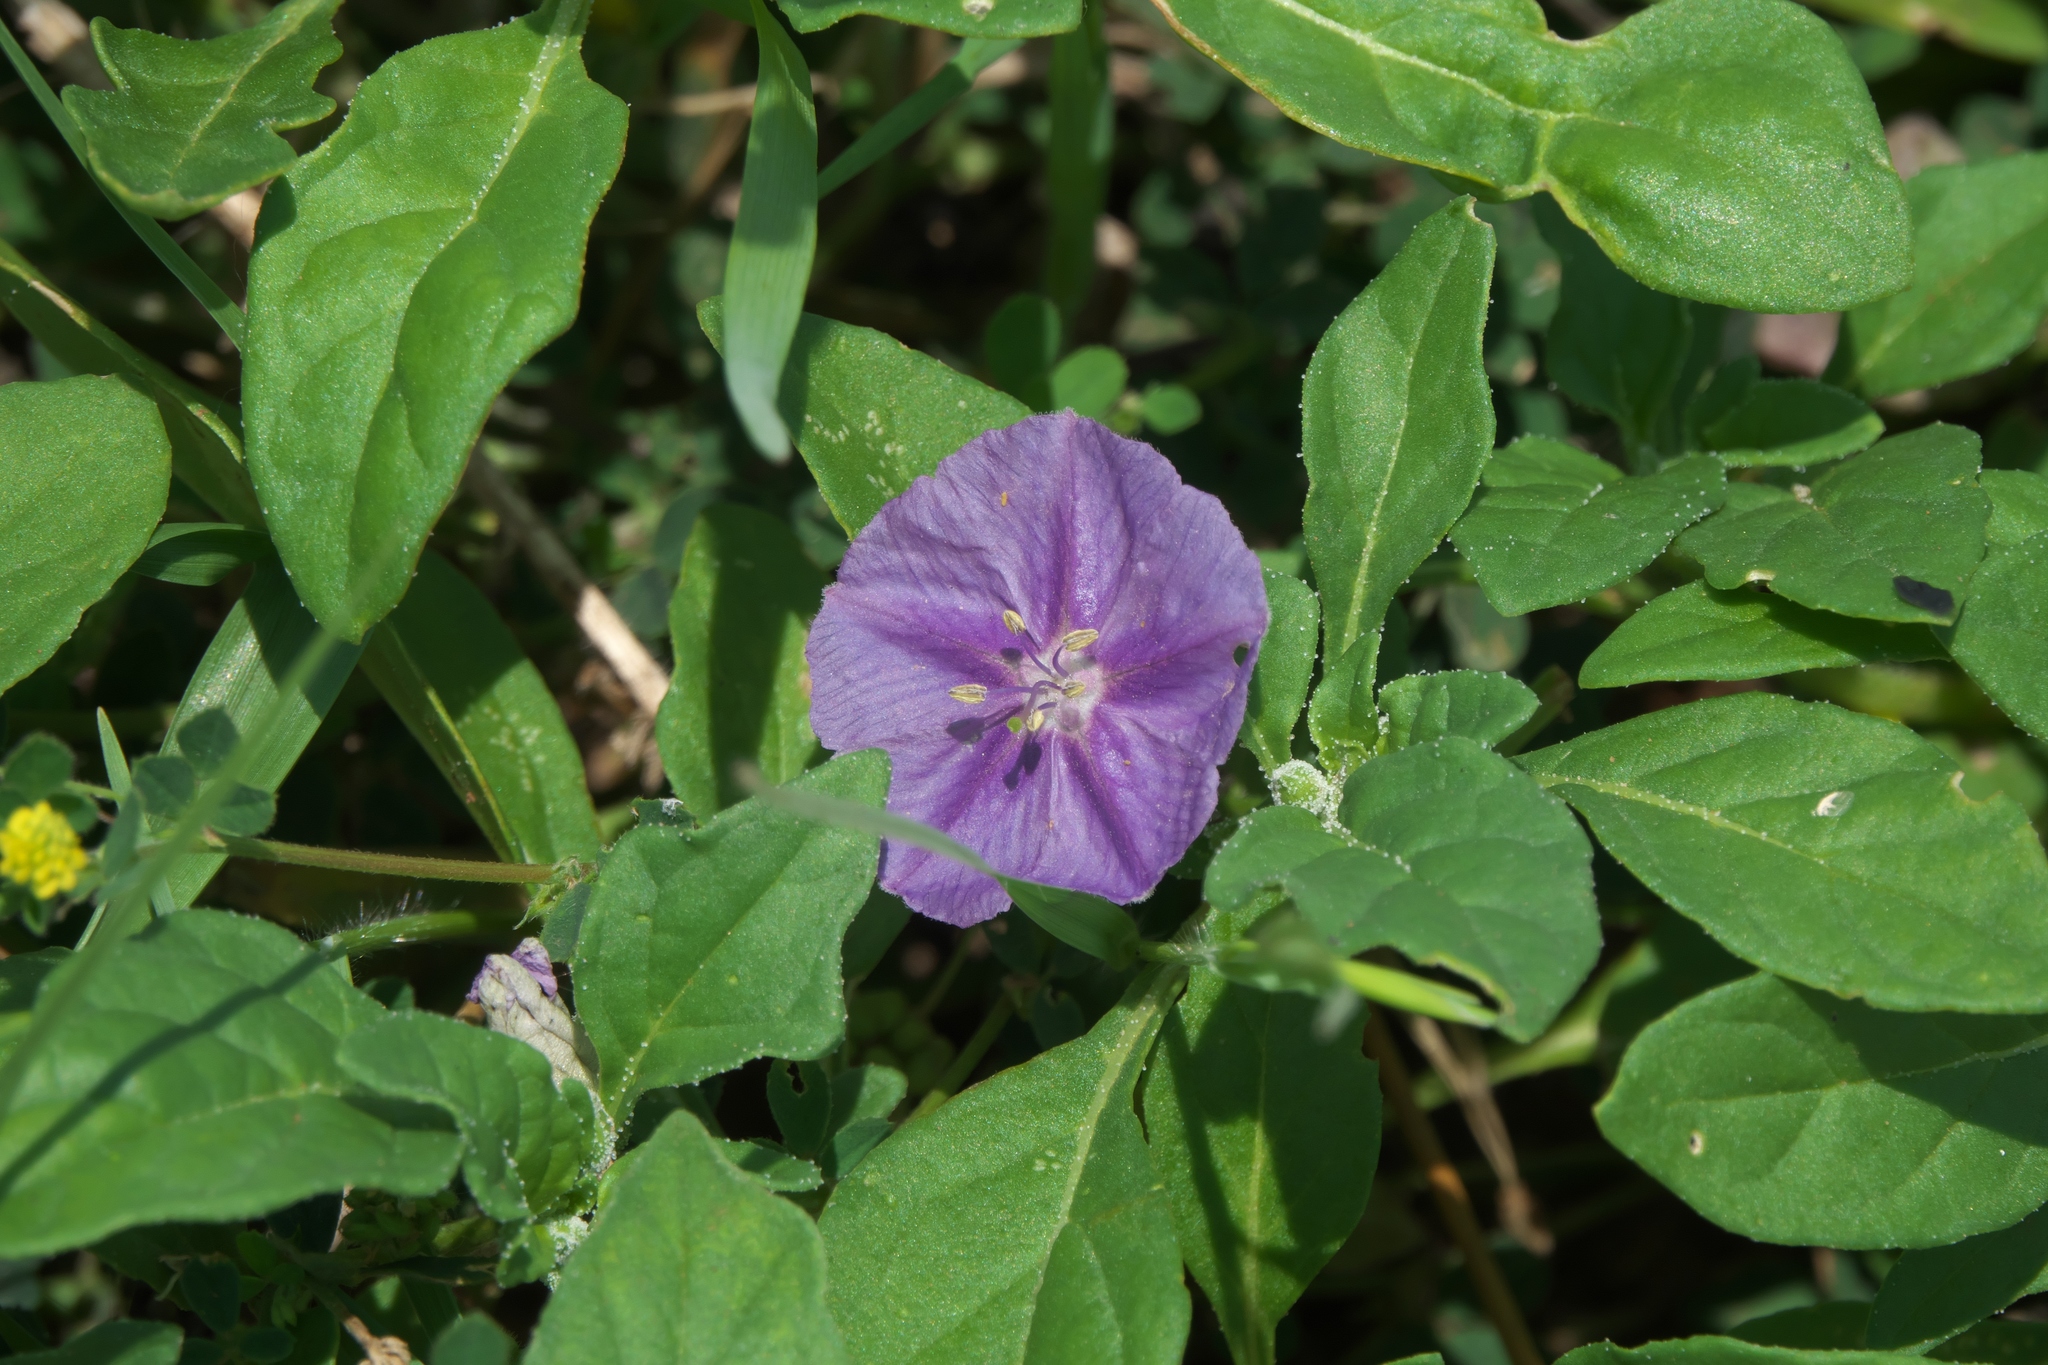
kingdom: Plantae
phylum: Tracheophyta
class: Magnoliopsida
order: Solanales
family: Solanaceae
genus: Quincula
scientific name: Quincula lobata
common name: Purple-ground-cherry
